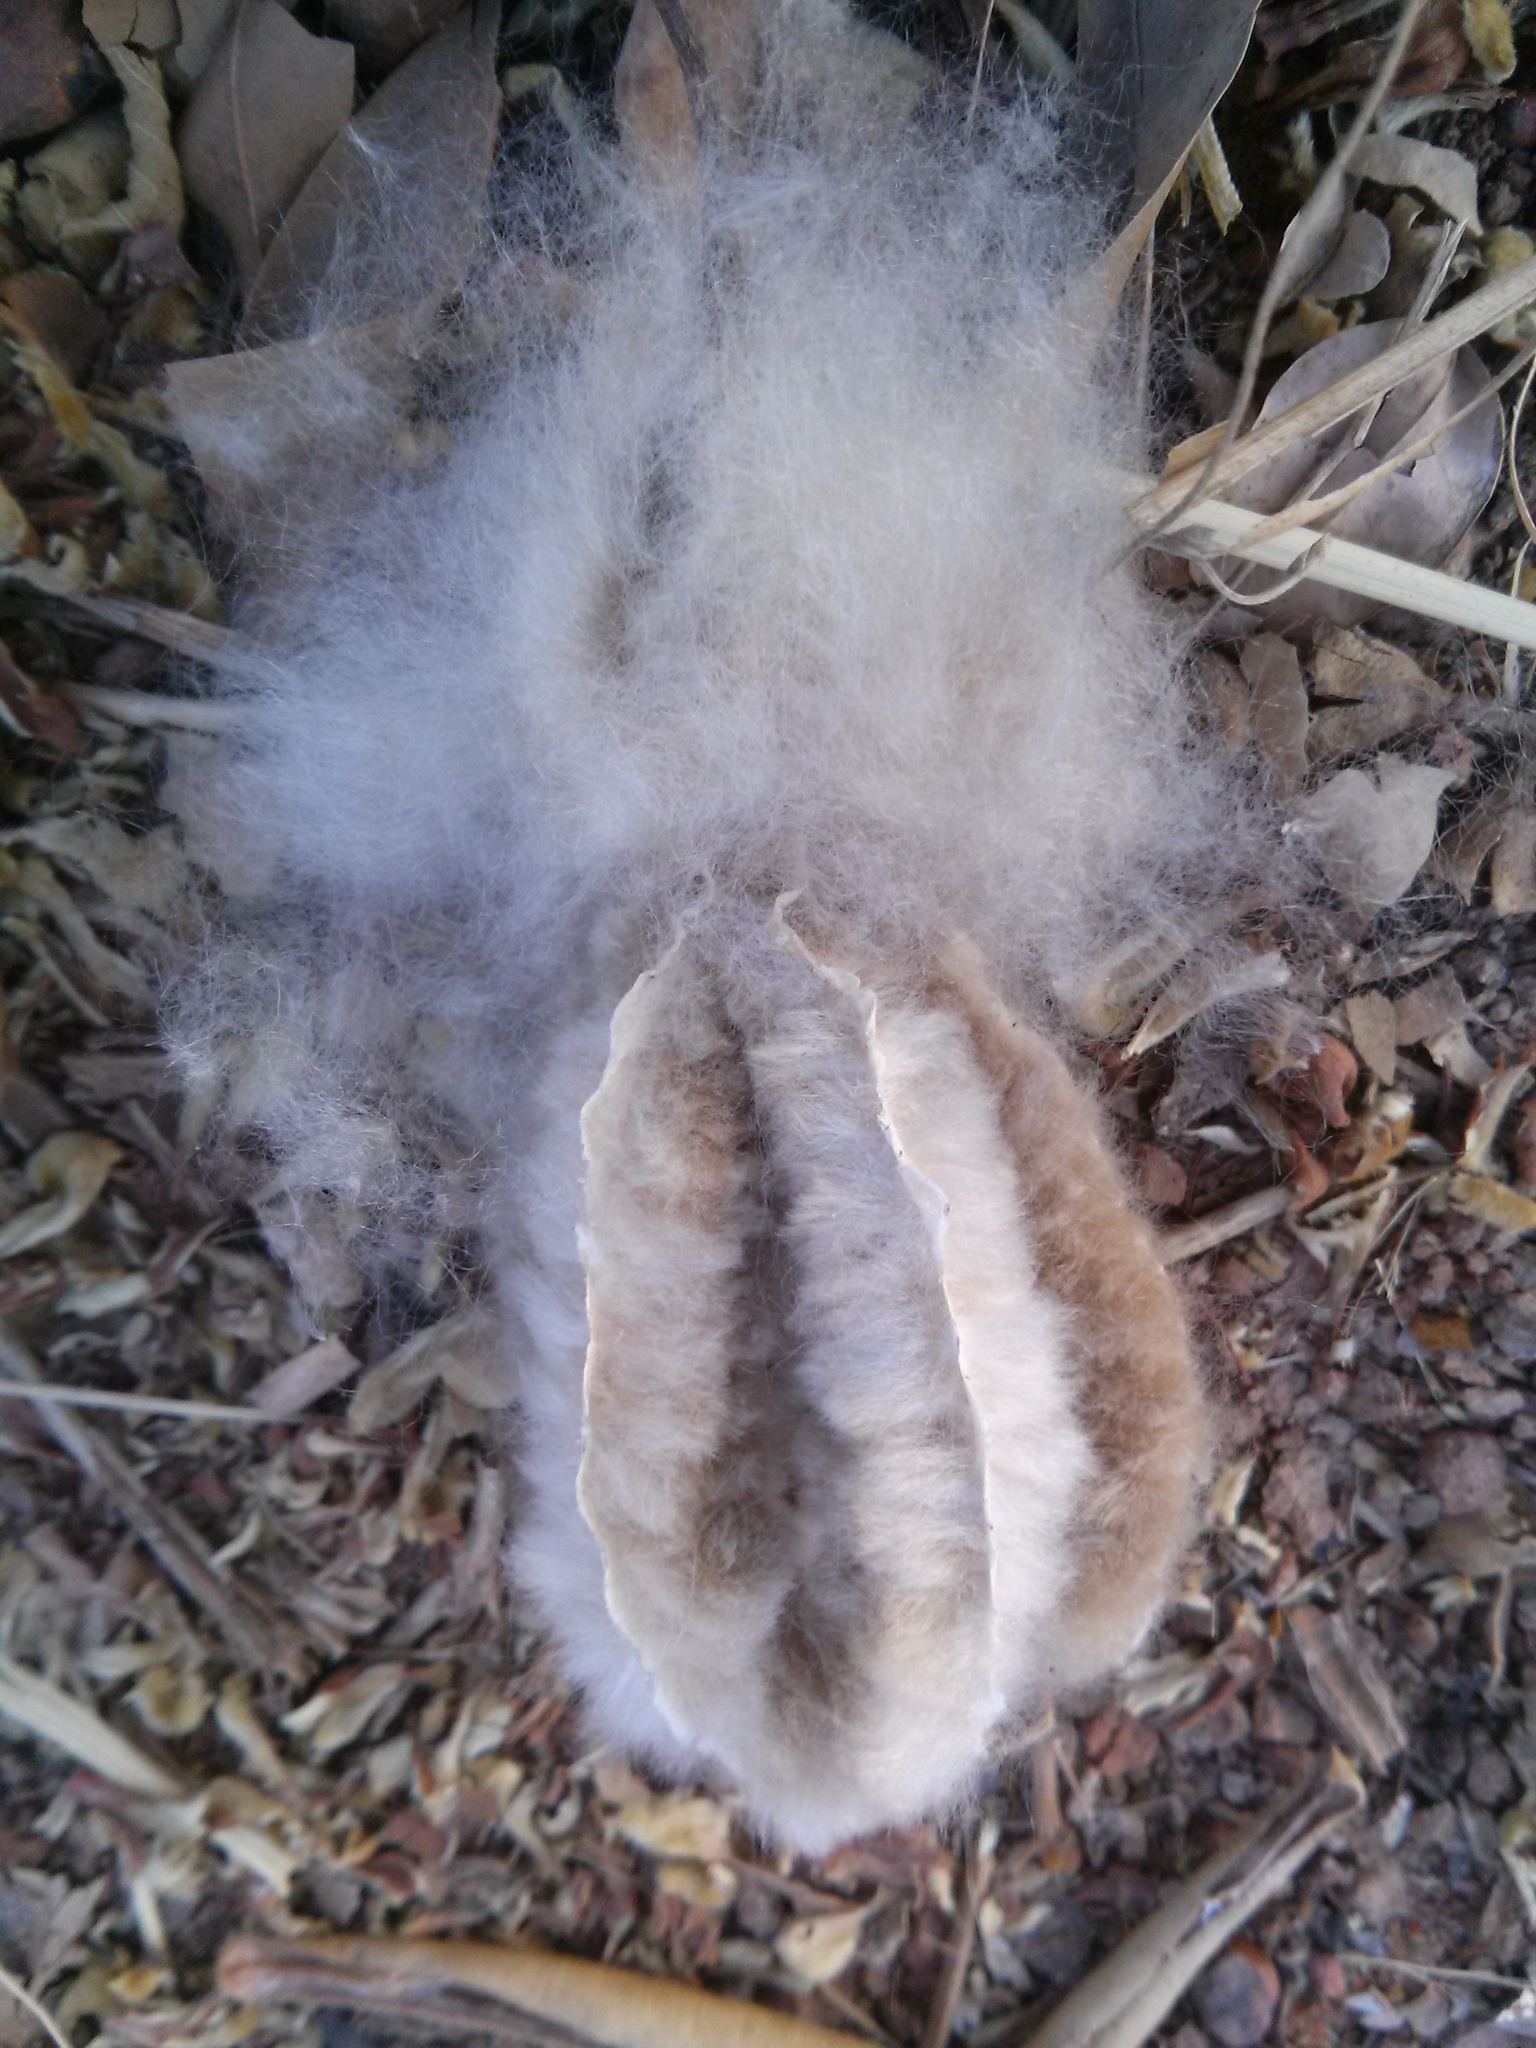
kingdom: Plantae
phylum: Tracheophyta
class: Magnoliopsida
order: Malvales
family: Malvaceae
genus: Ceiba
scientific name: Ceiba pentandra
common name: Kapok
